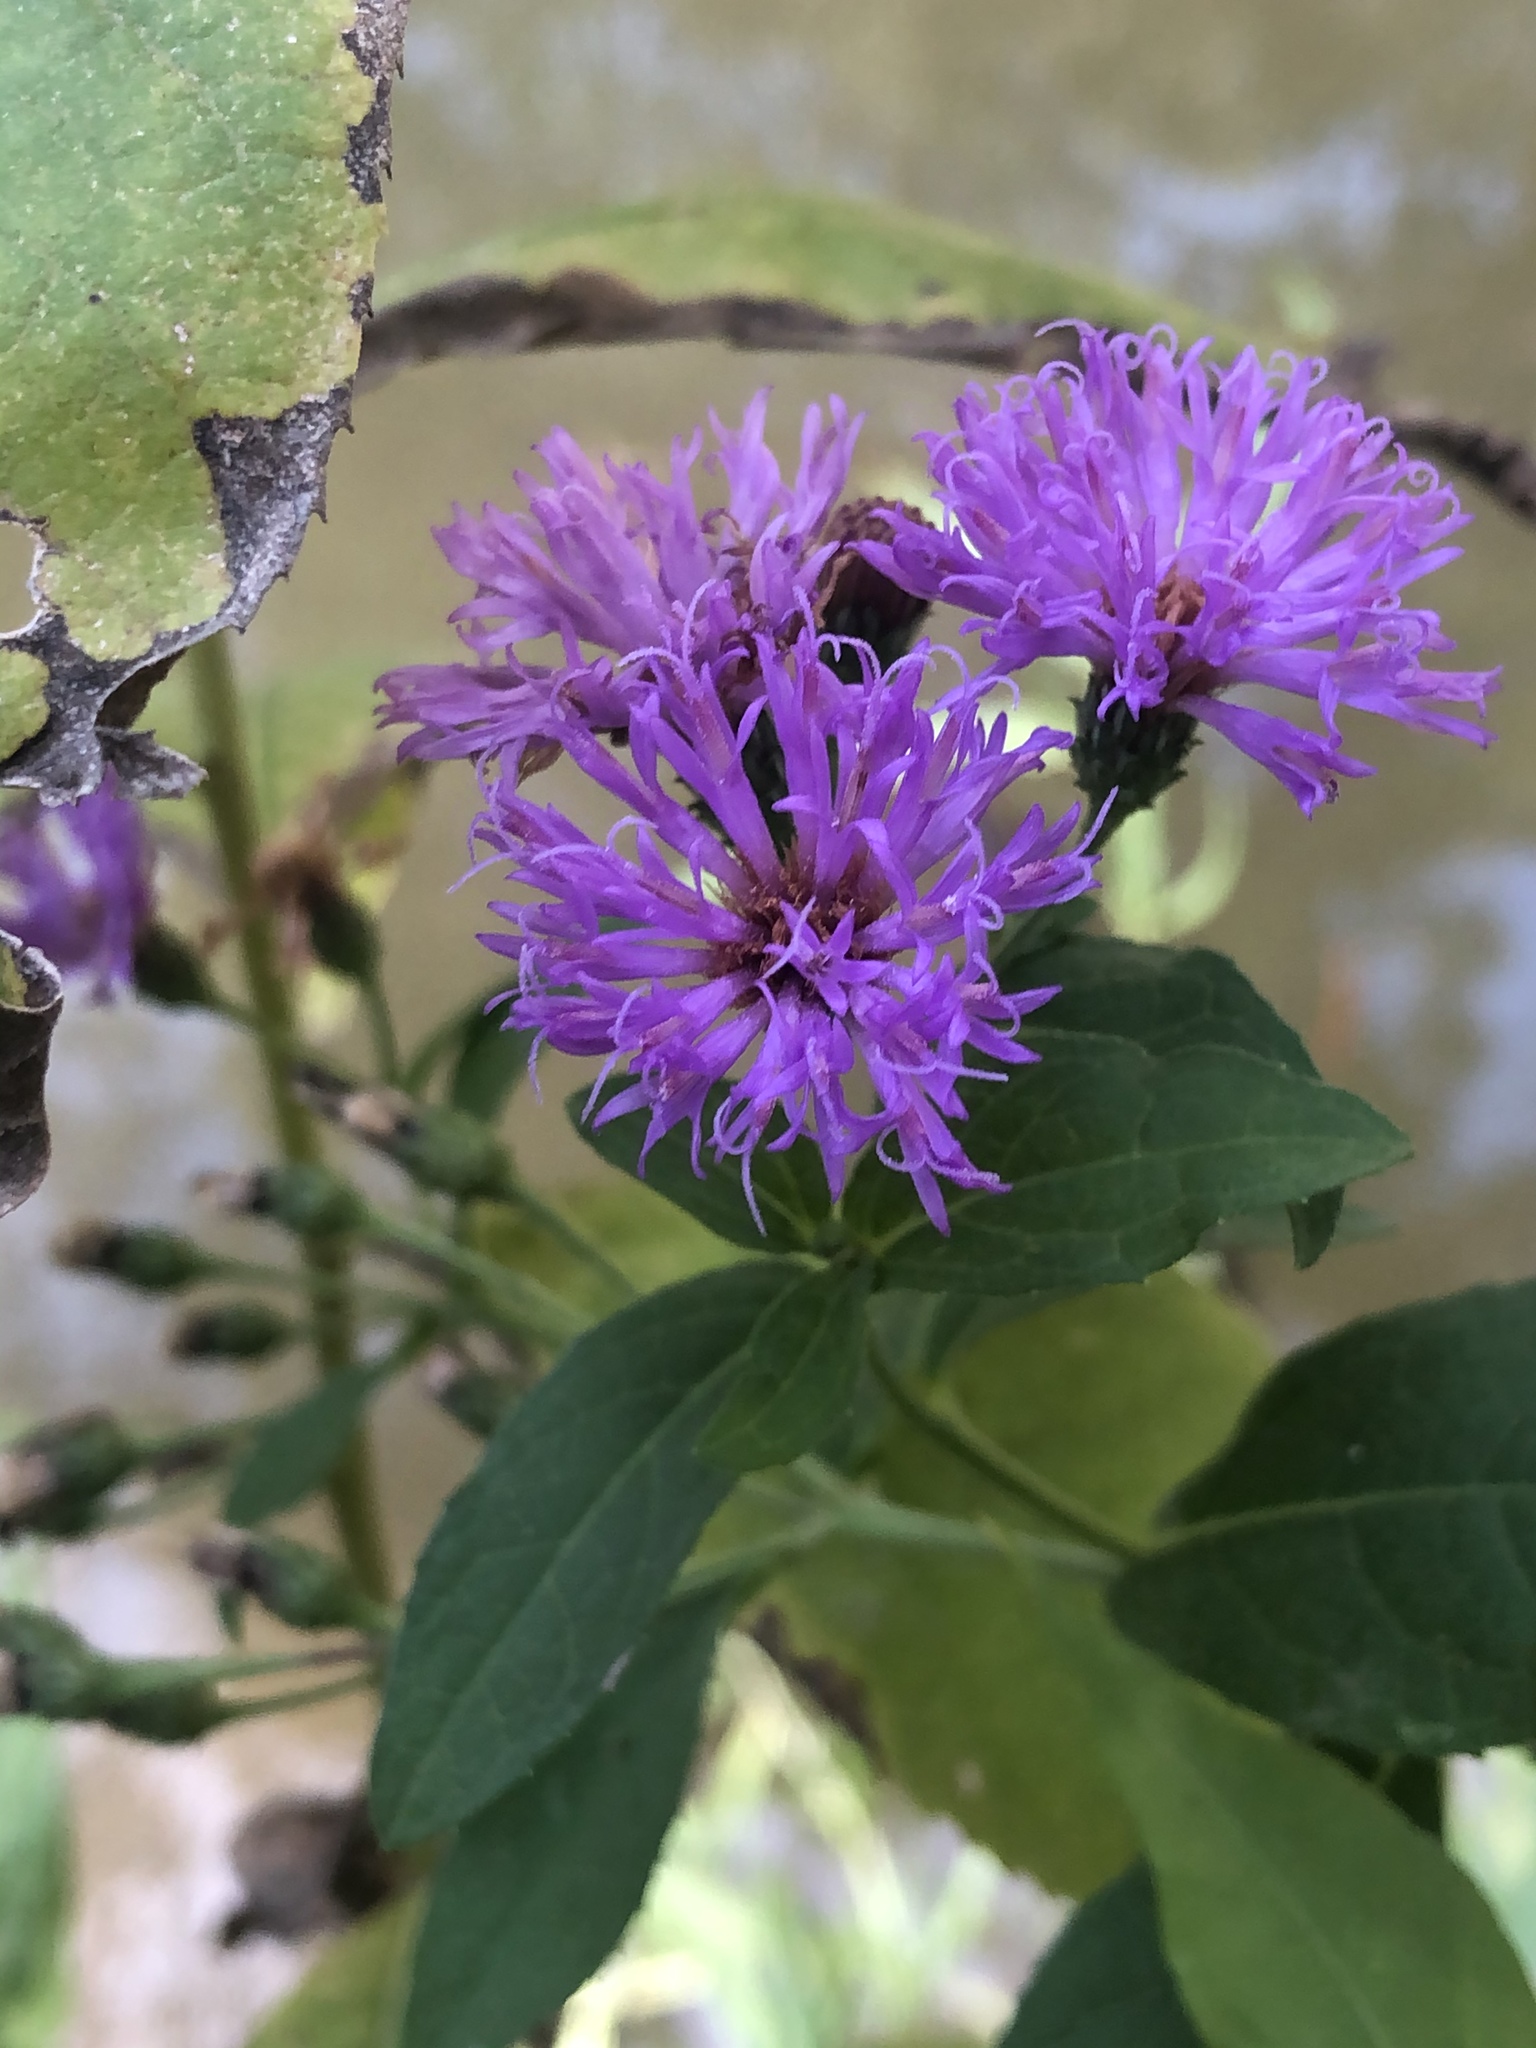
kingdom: Plantae
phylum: Tracheophyta
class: Magnoliopsida
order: Asterales
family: Asteraceae
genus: Vernonia
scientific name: Vernonia baldwinii
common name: Western ironweed
